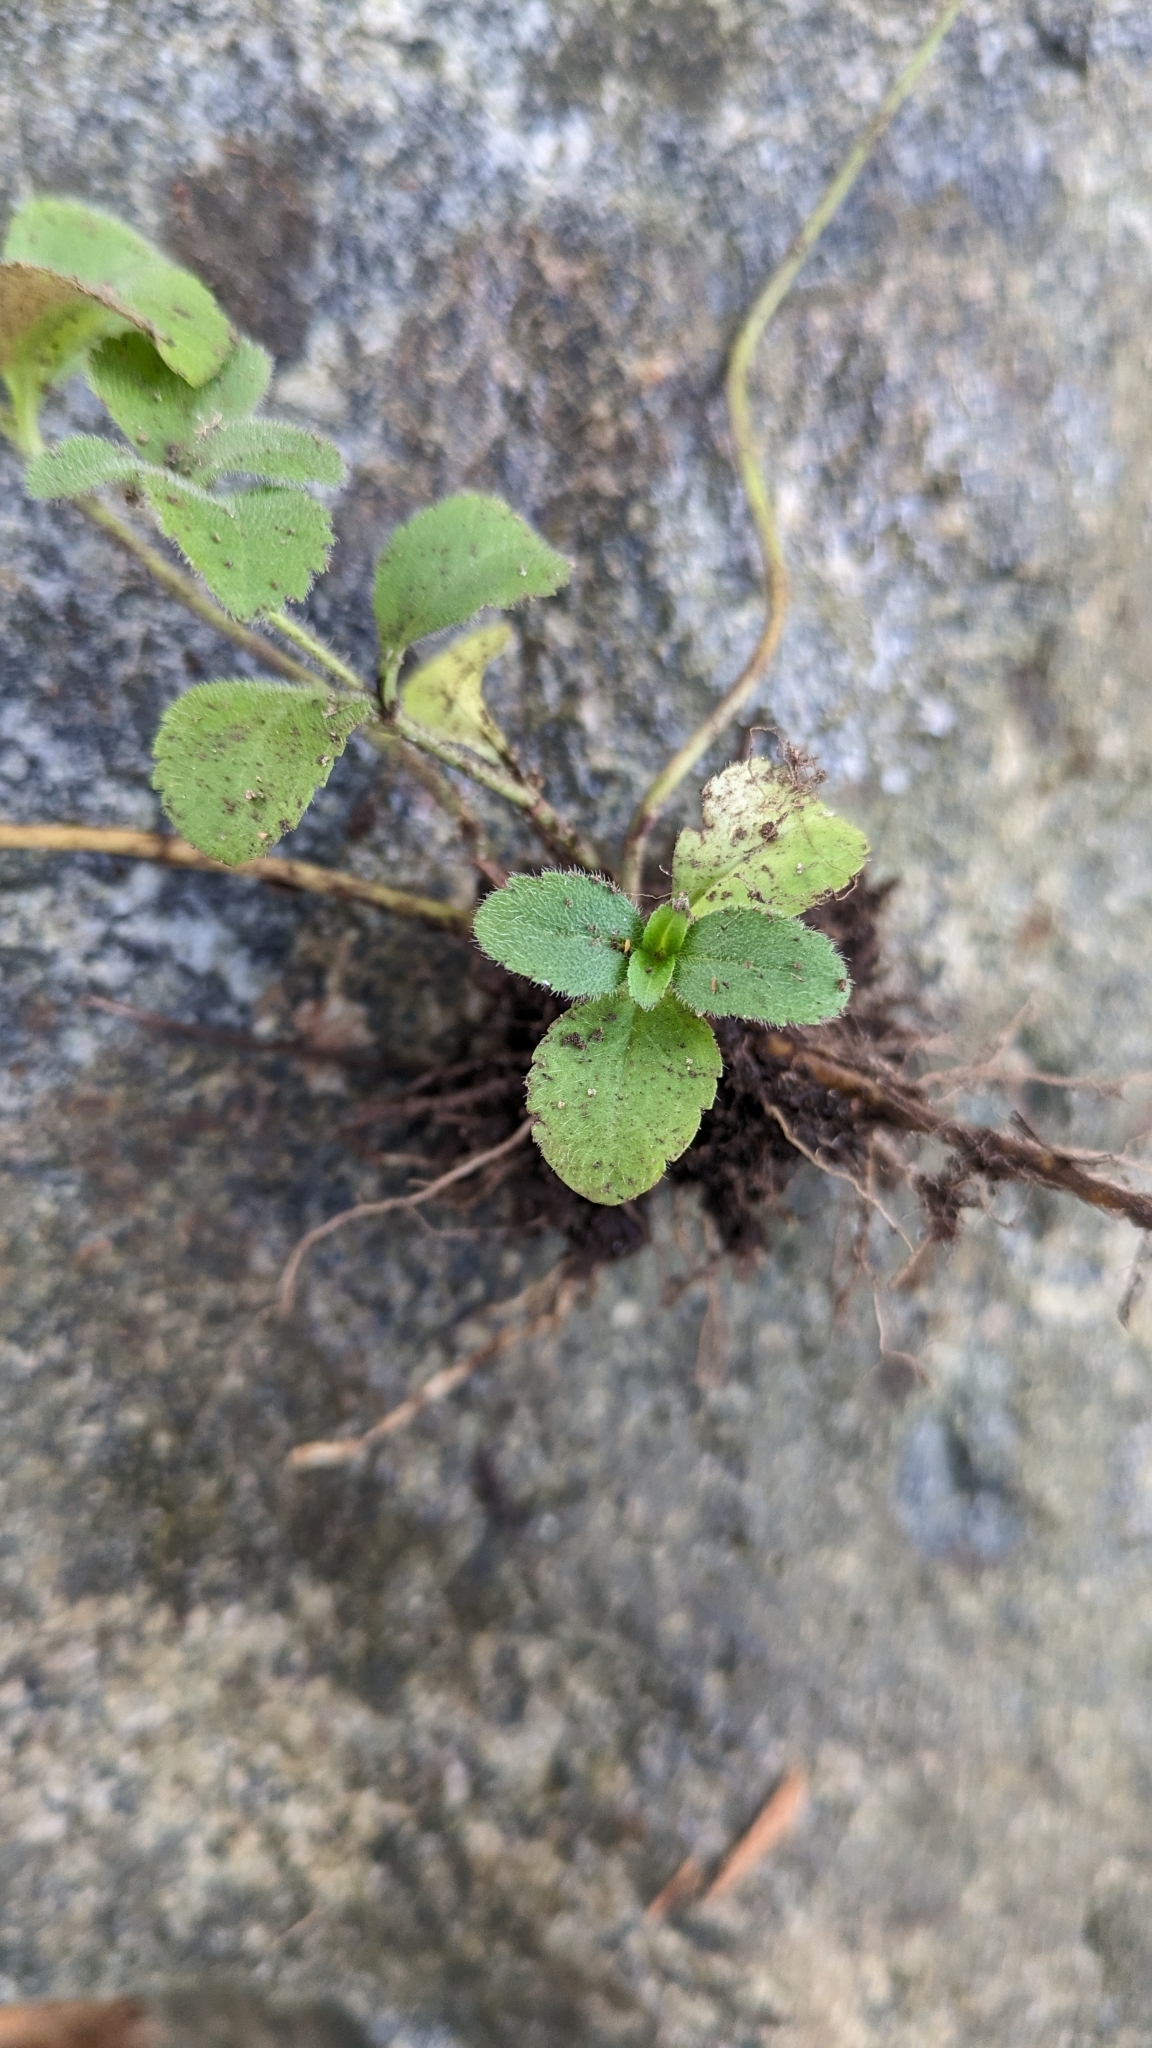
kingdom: Plantae
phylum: Tracheophyta
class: Magnoliopsida
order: Lamiales
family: Plantaginaceae
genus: Veronica
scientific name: Veronica officinalis
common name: Common speedwell
